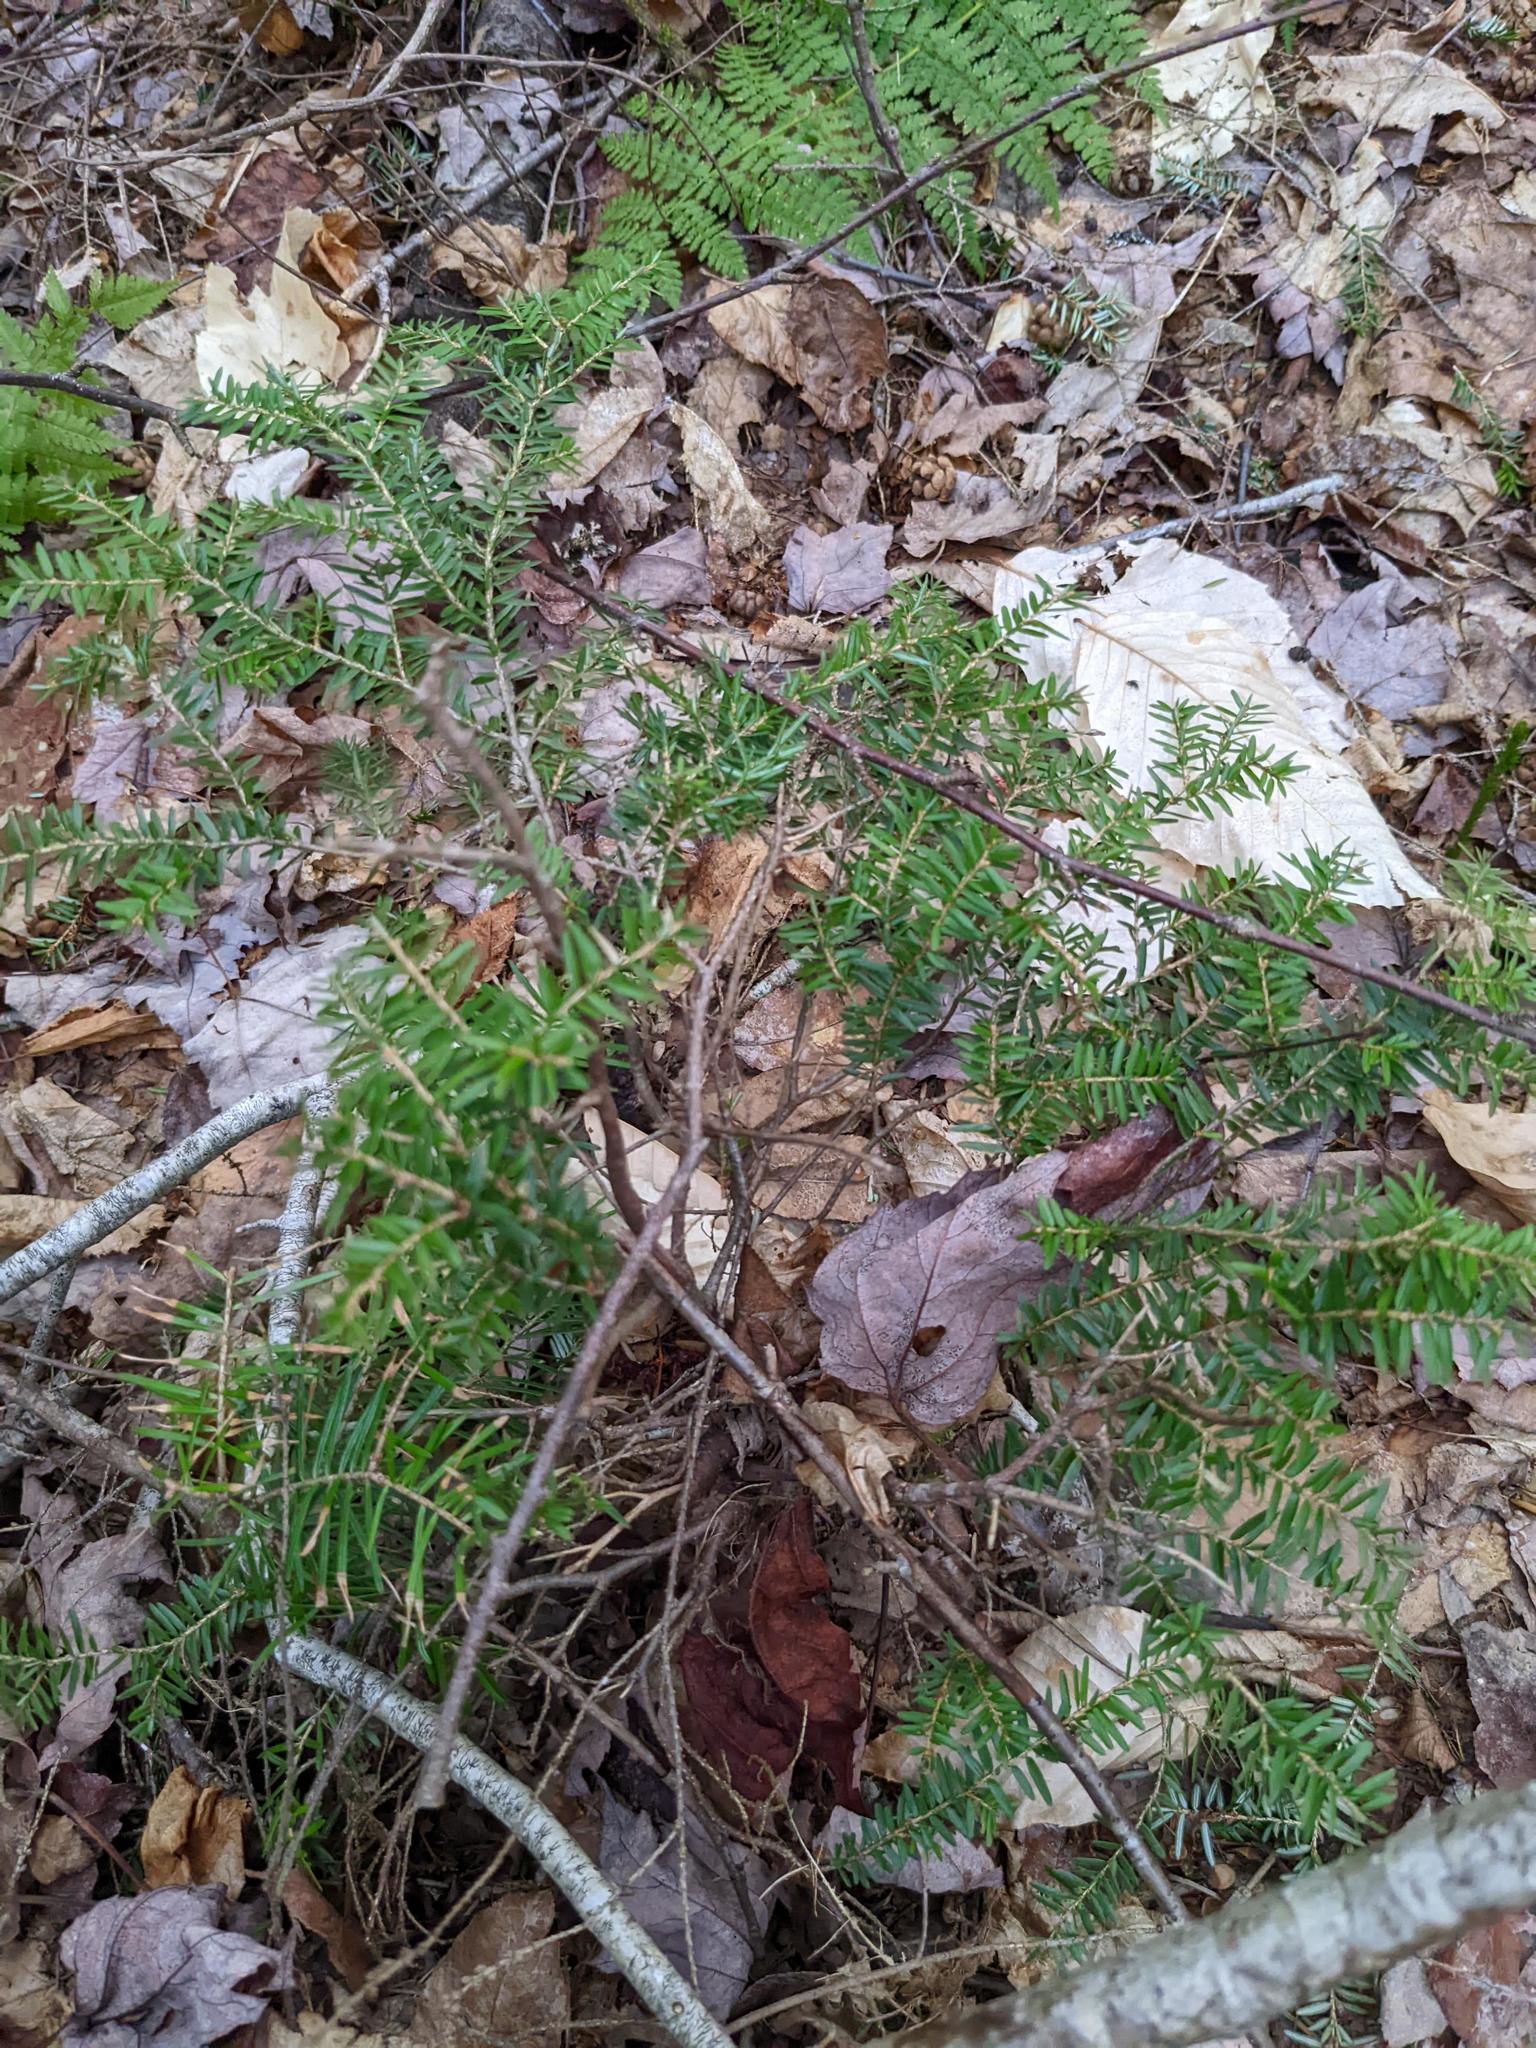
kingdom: Plantae
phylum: Tracheophyta
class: Pinopsida
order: Pinales
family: Pinaceae
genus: Tsuga
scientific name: Tsuga canadensis
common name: Eastern hemlock
